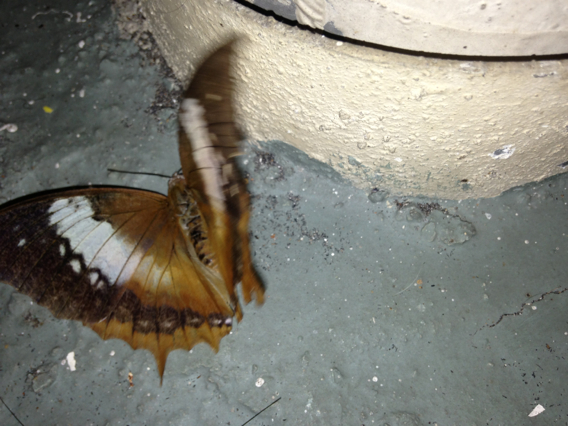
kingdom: Animalia
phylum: Arthropoda
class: Insecta
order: Lepidoptera
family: Nymphalidae
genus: Charaxes
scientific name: Charaxes bernardus
